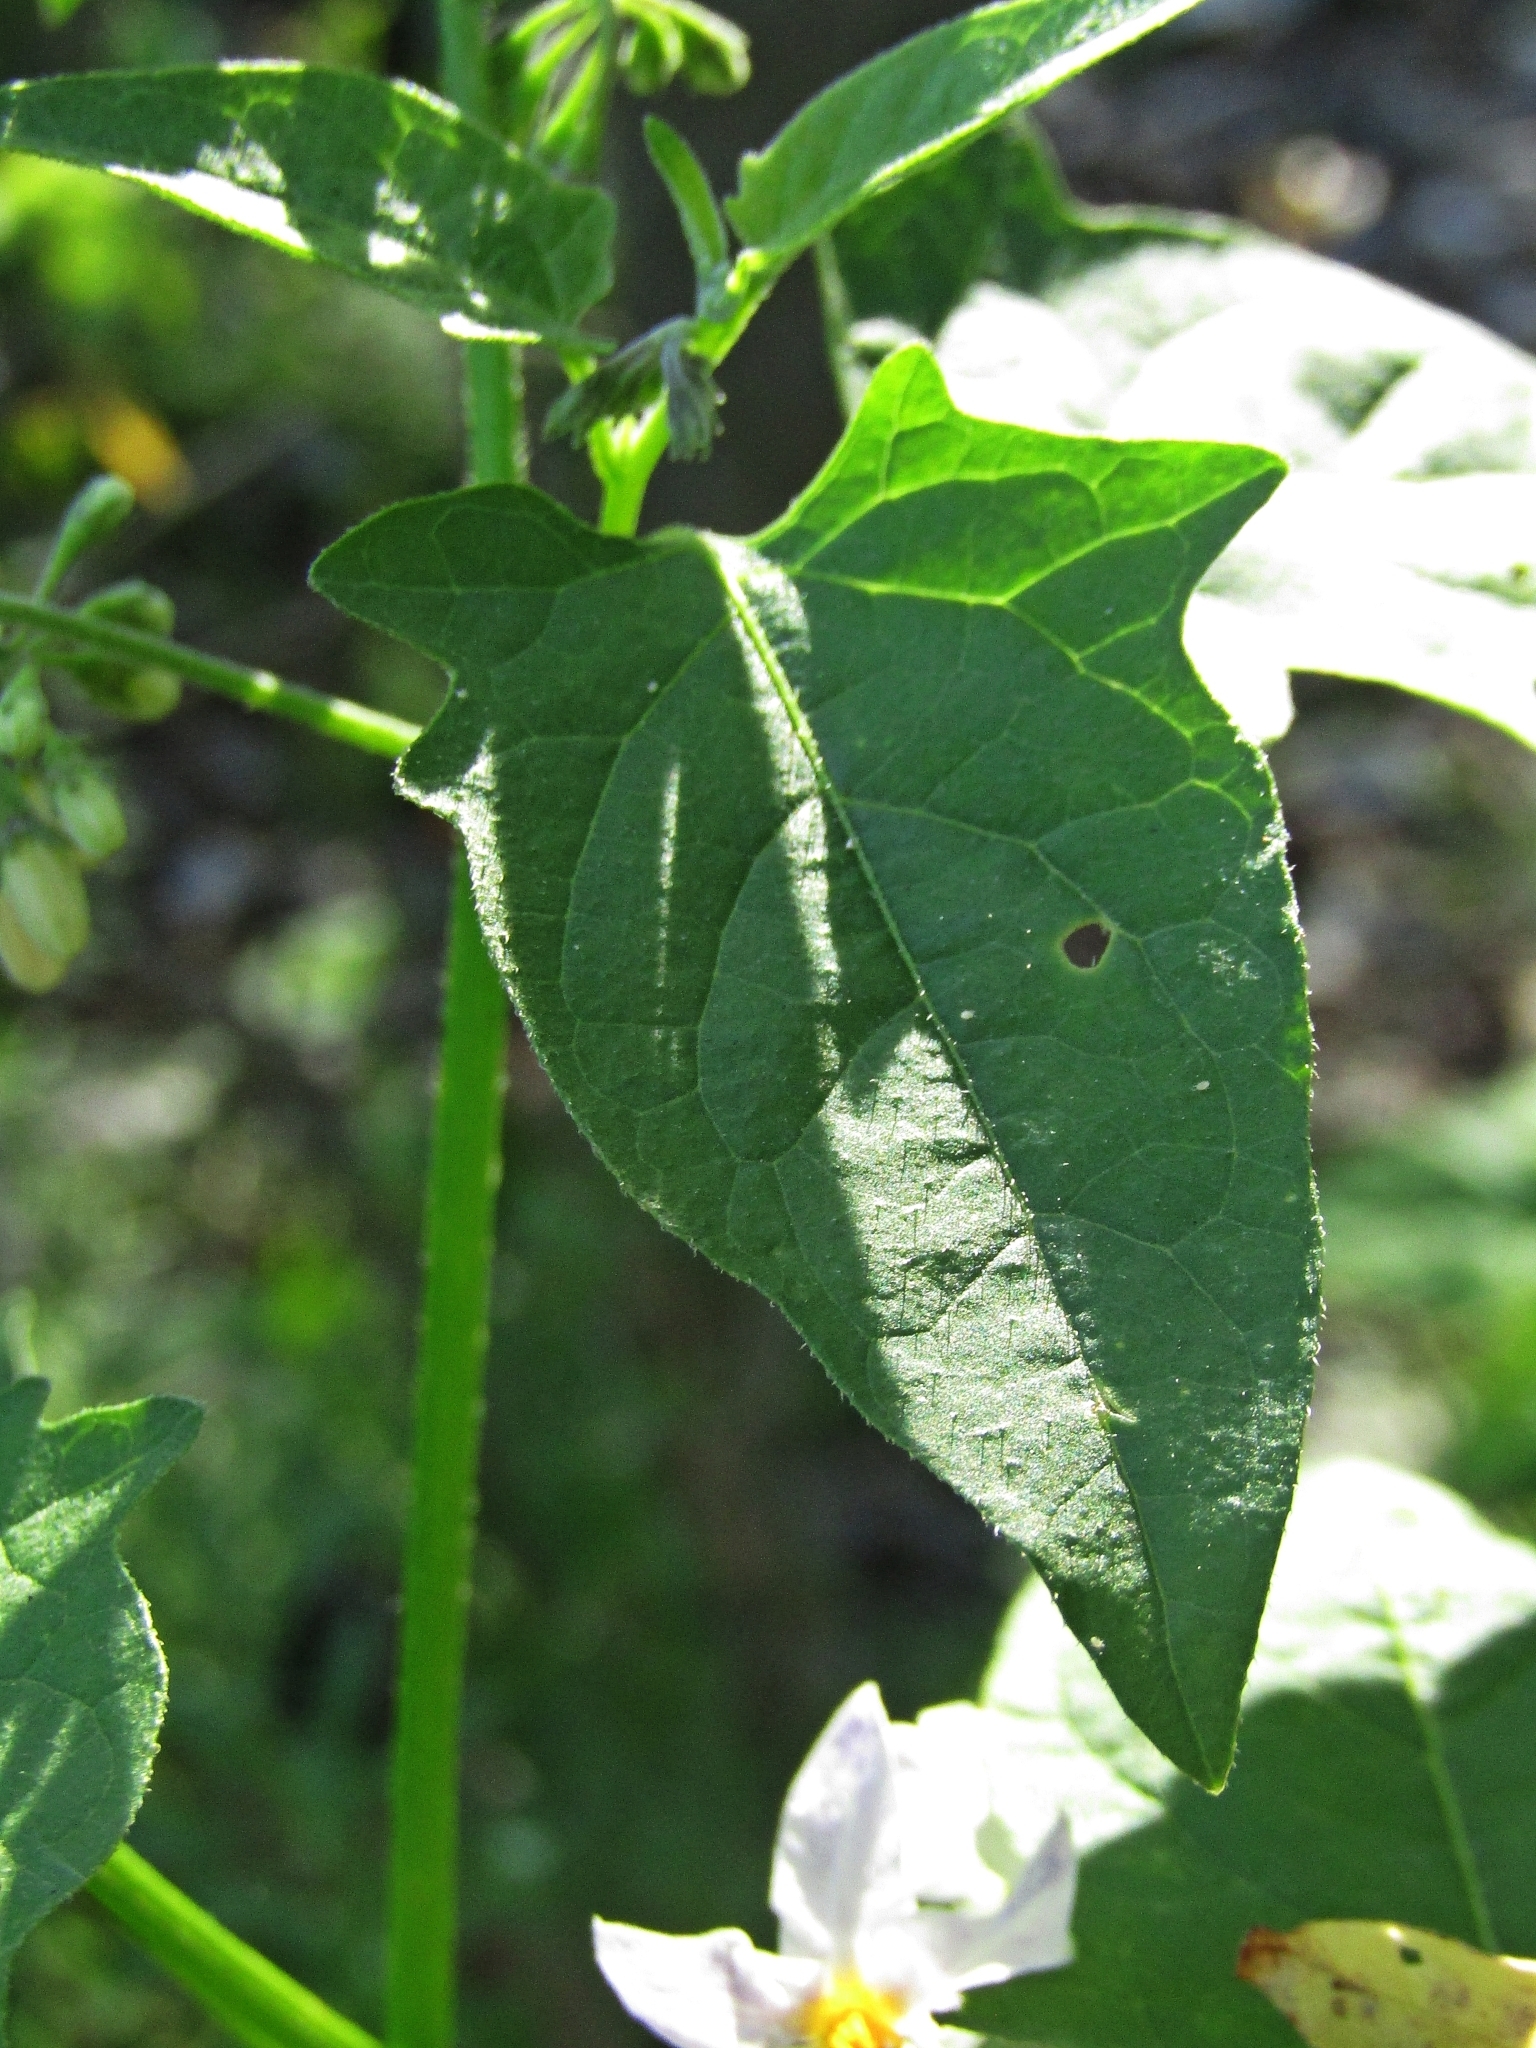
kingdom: Plantae
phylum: Tracheophyta
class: Magnoliopsida
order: Solanales
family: Solanaceae
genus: Solanum
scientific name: Solanum pilcomayense
